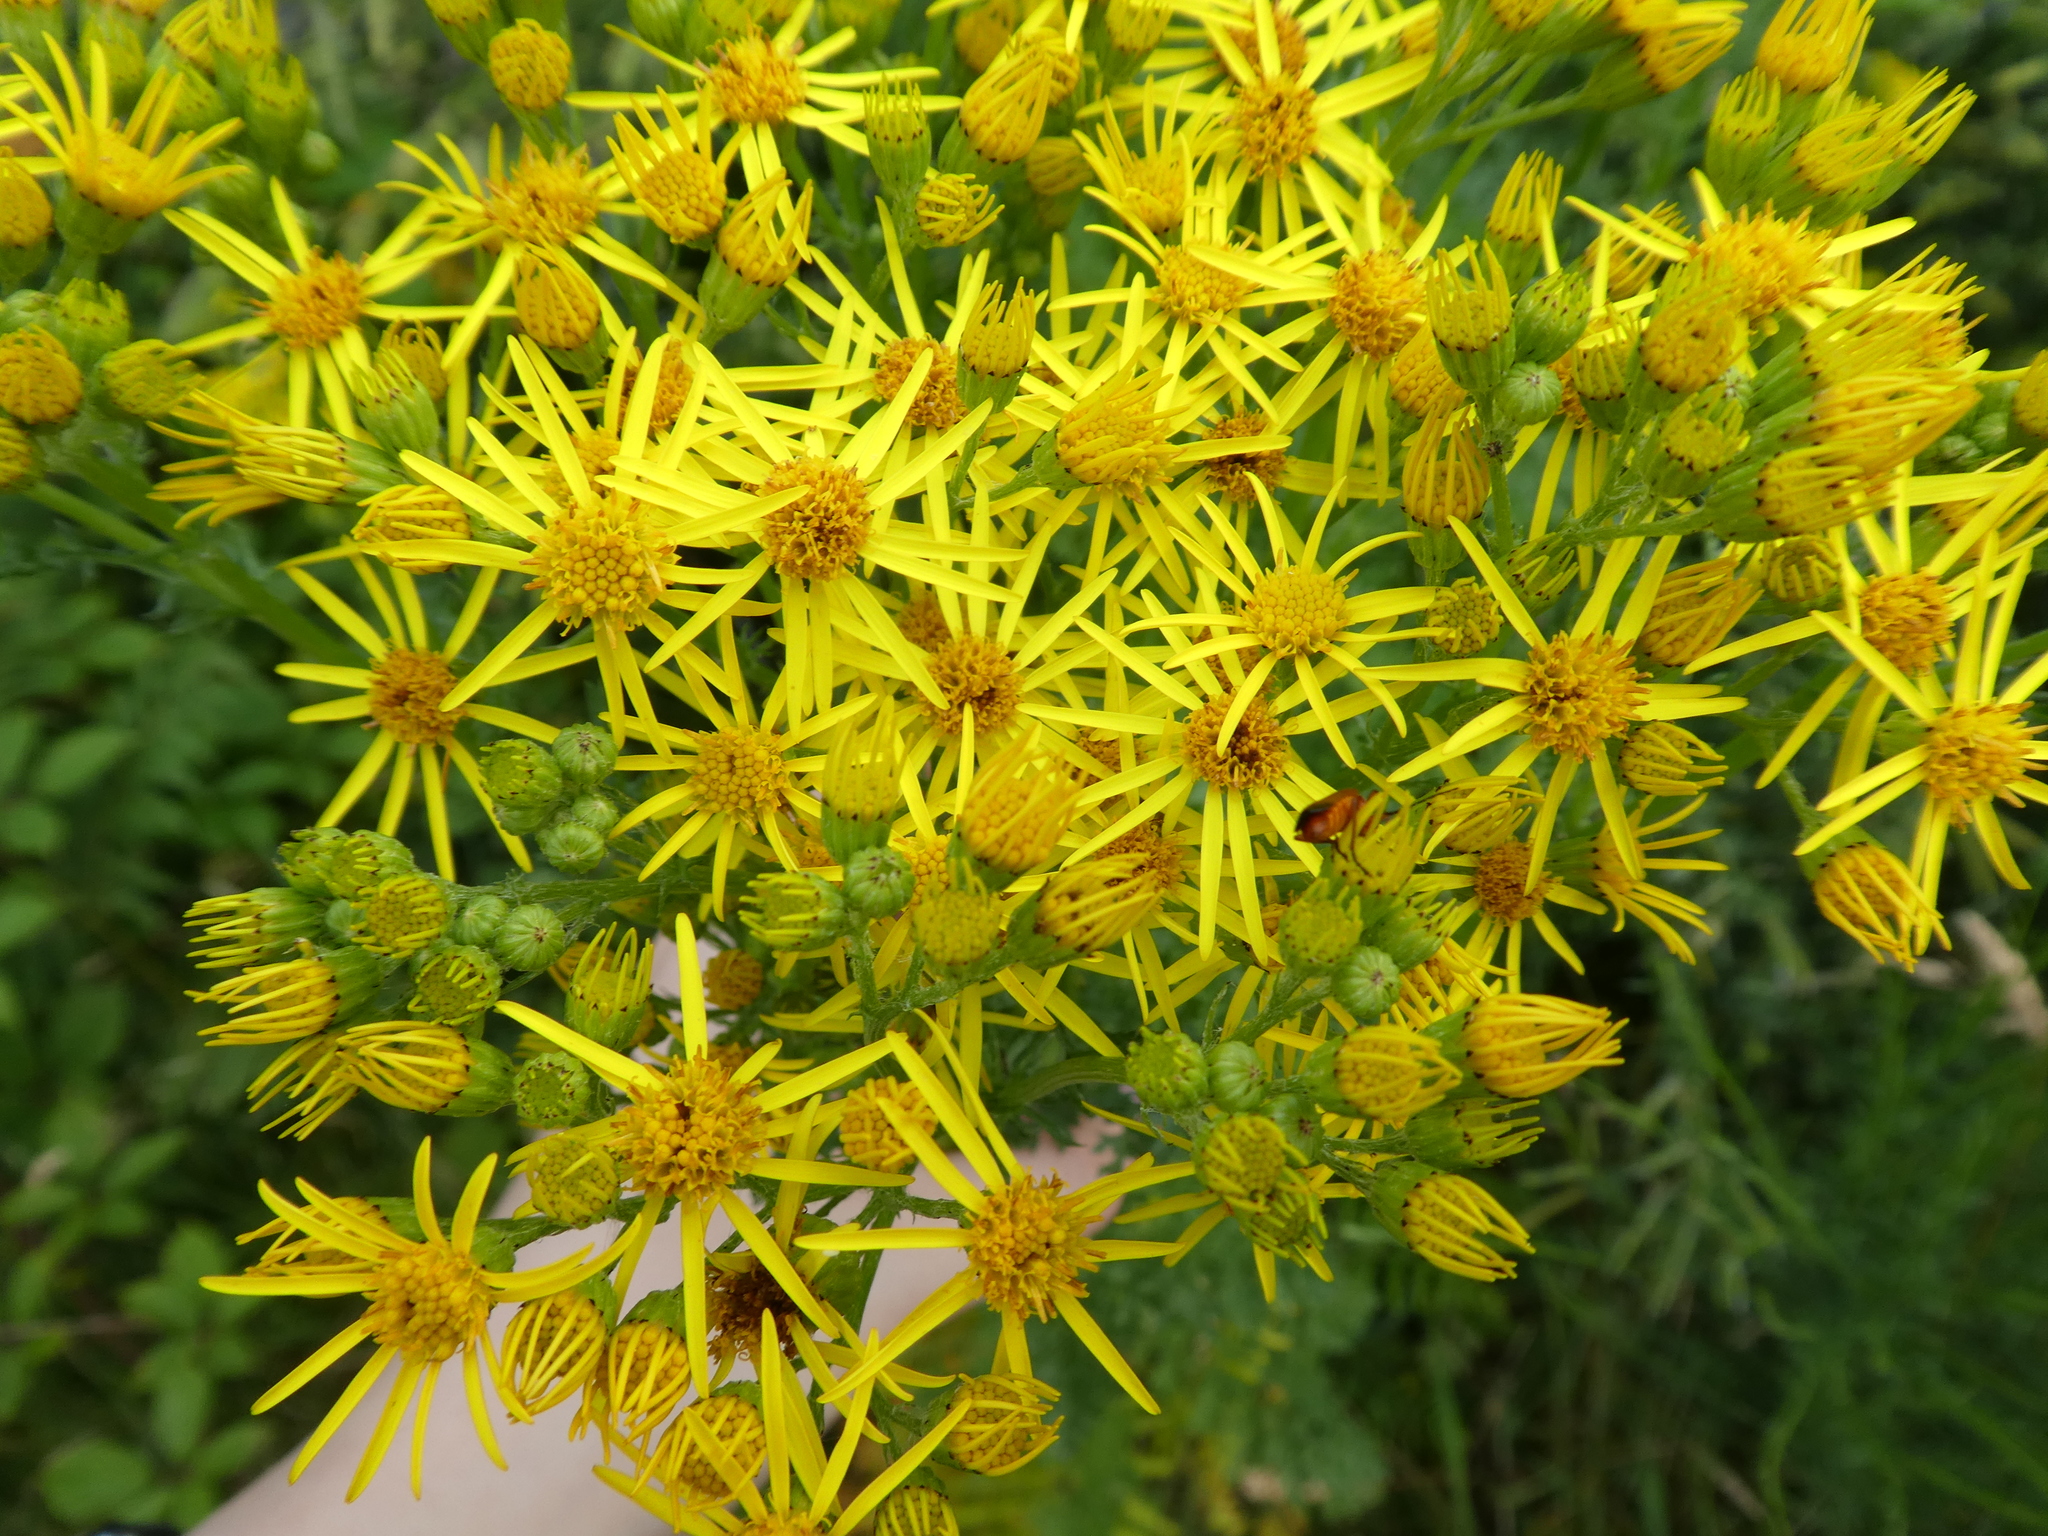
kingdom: Plantae
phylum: Tracheophyta
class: Magnoliopsida
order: Asterales
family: Asteraceae
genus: Jacobaea
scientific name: Jacobaea vulgaris
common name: Stinking willie
